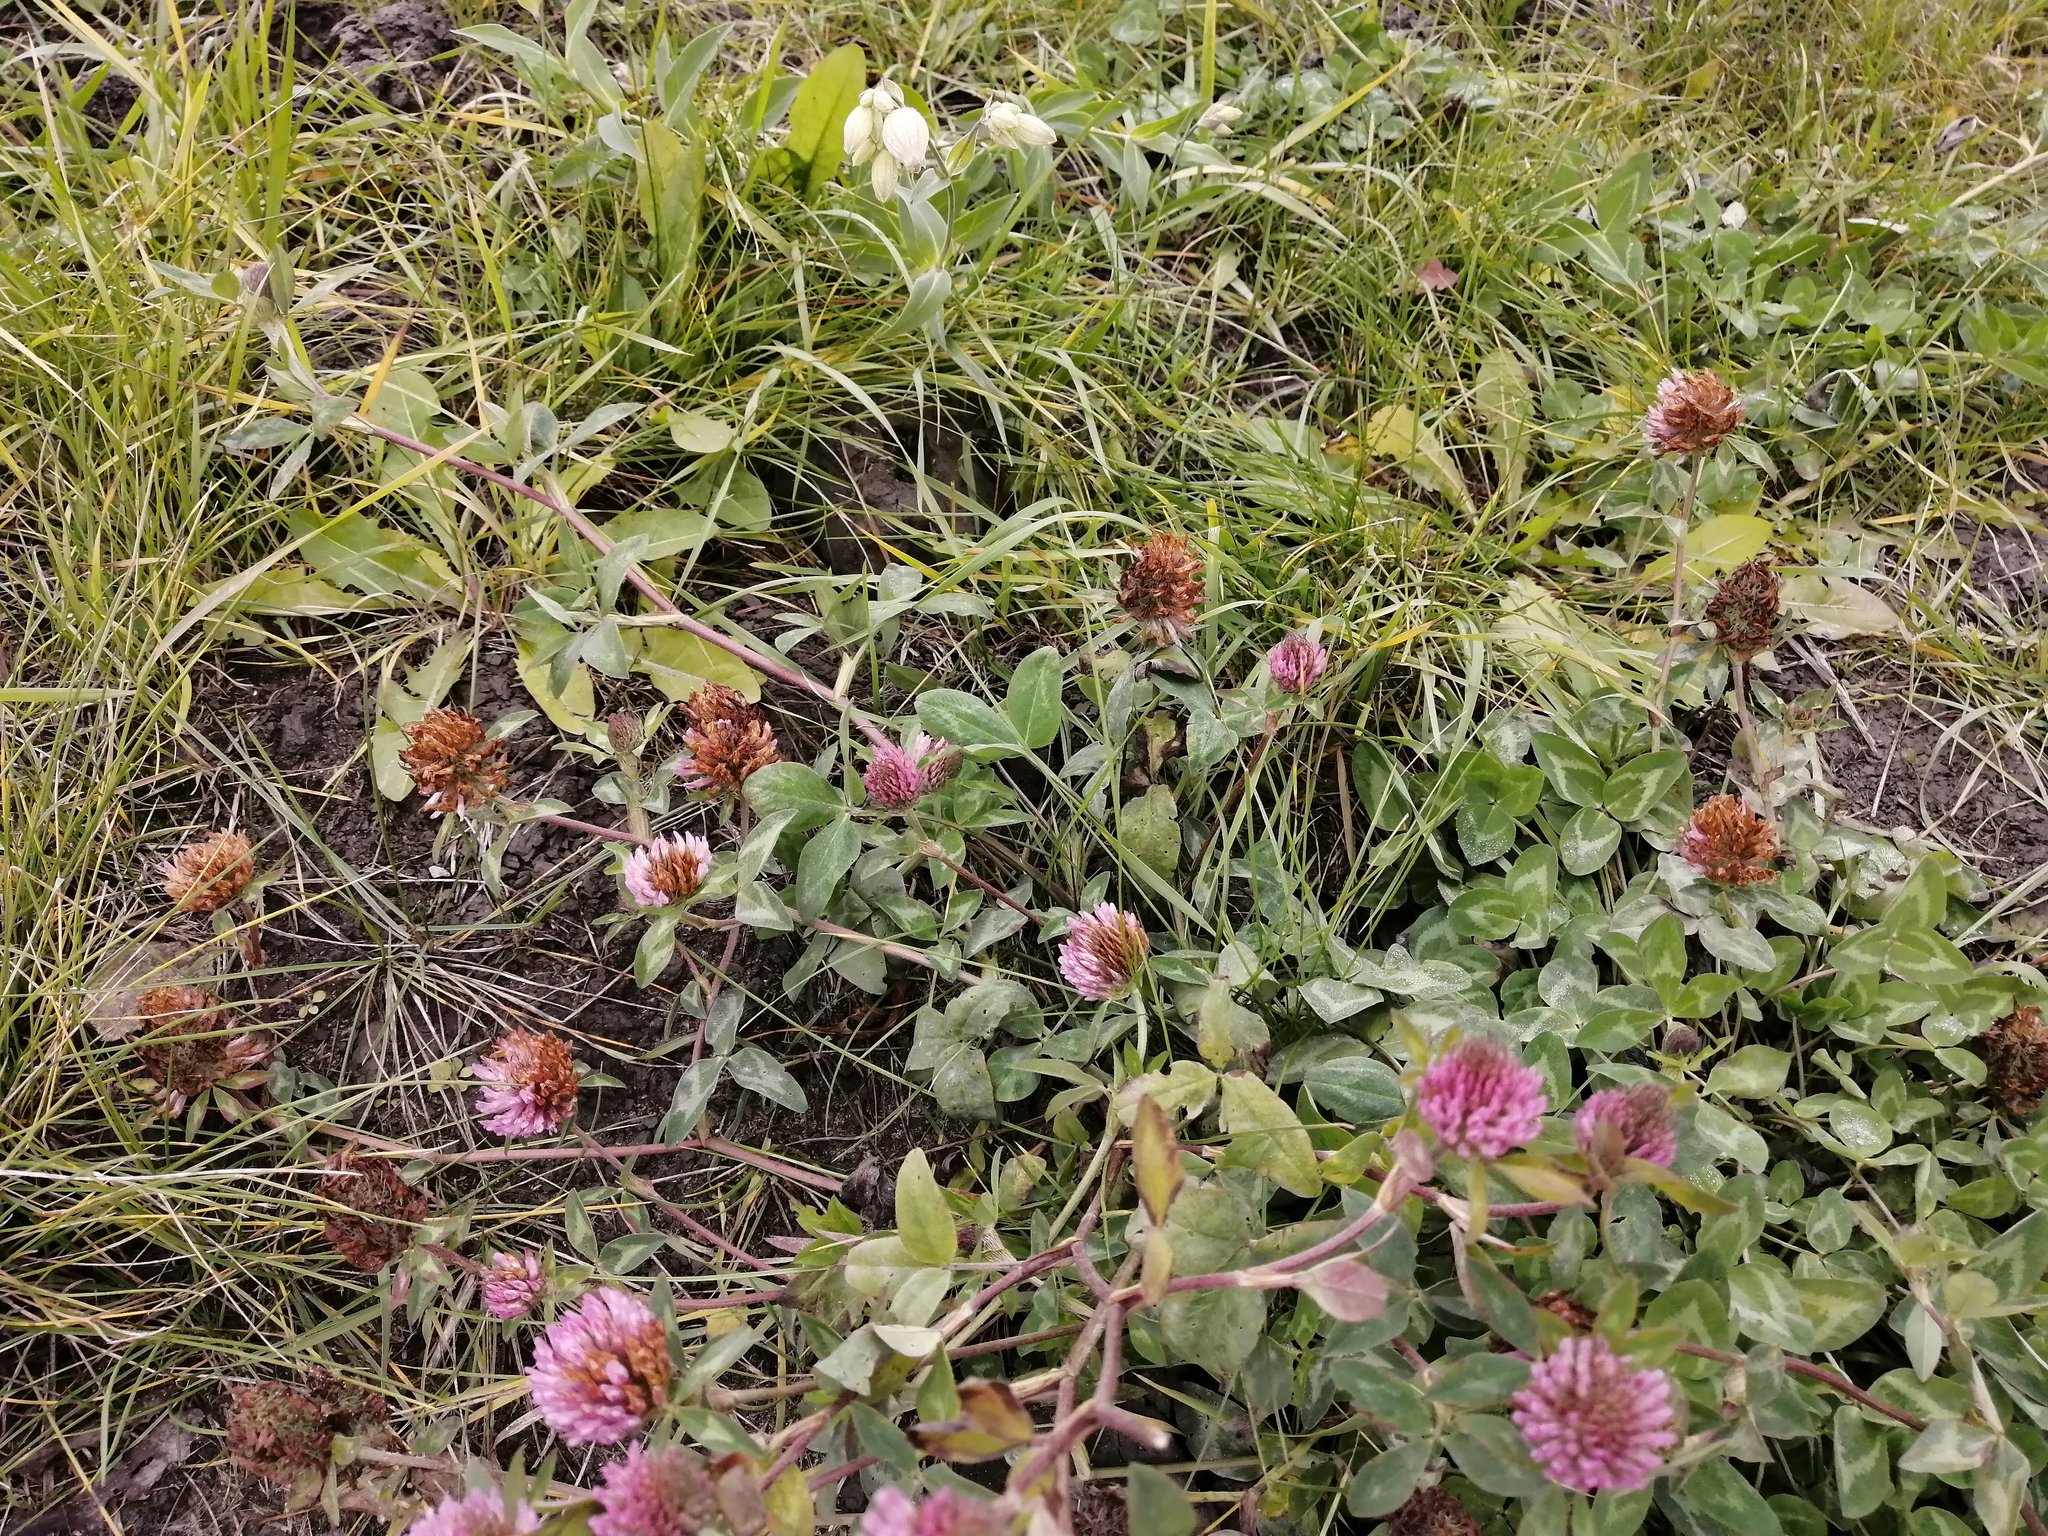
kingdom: Plantae
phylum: Tracheophyta
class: Magnoliopsida
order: Fabales
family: Fabaceae
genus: Trifolium
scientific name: Trifolium pratense
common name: Red clover
